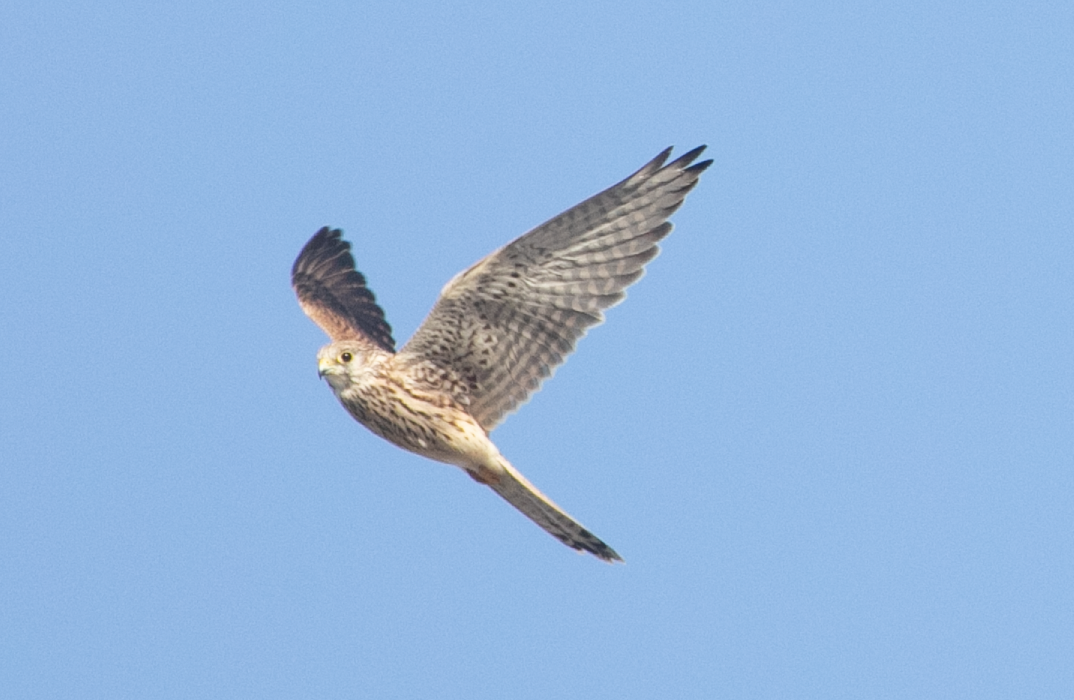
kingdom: Animalia
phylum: Chordata
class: Aves
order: Falconiformes
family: Falconidae
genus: Falco
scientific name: Falco tinnunculus
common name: Common kestrel
